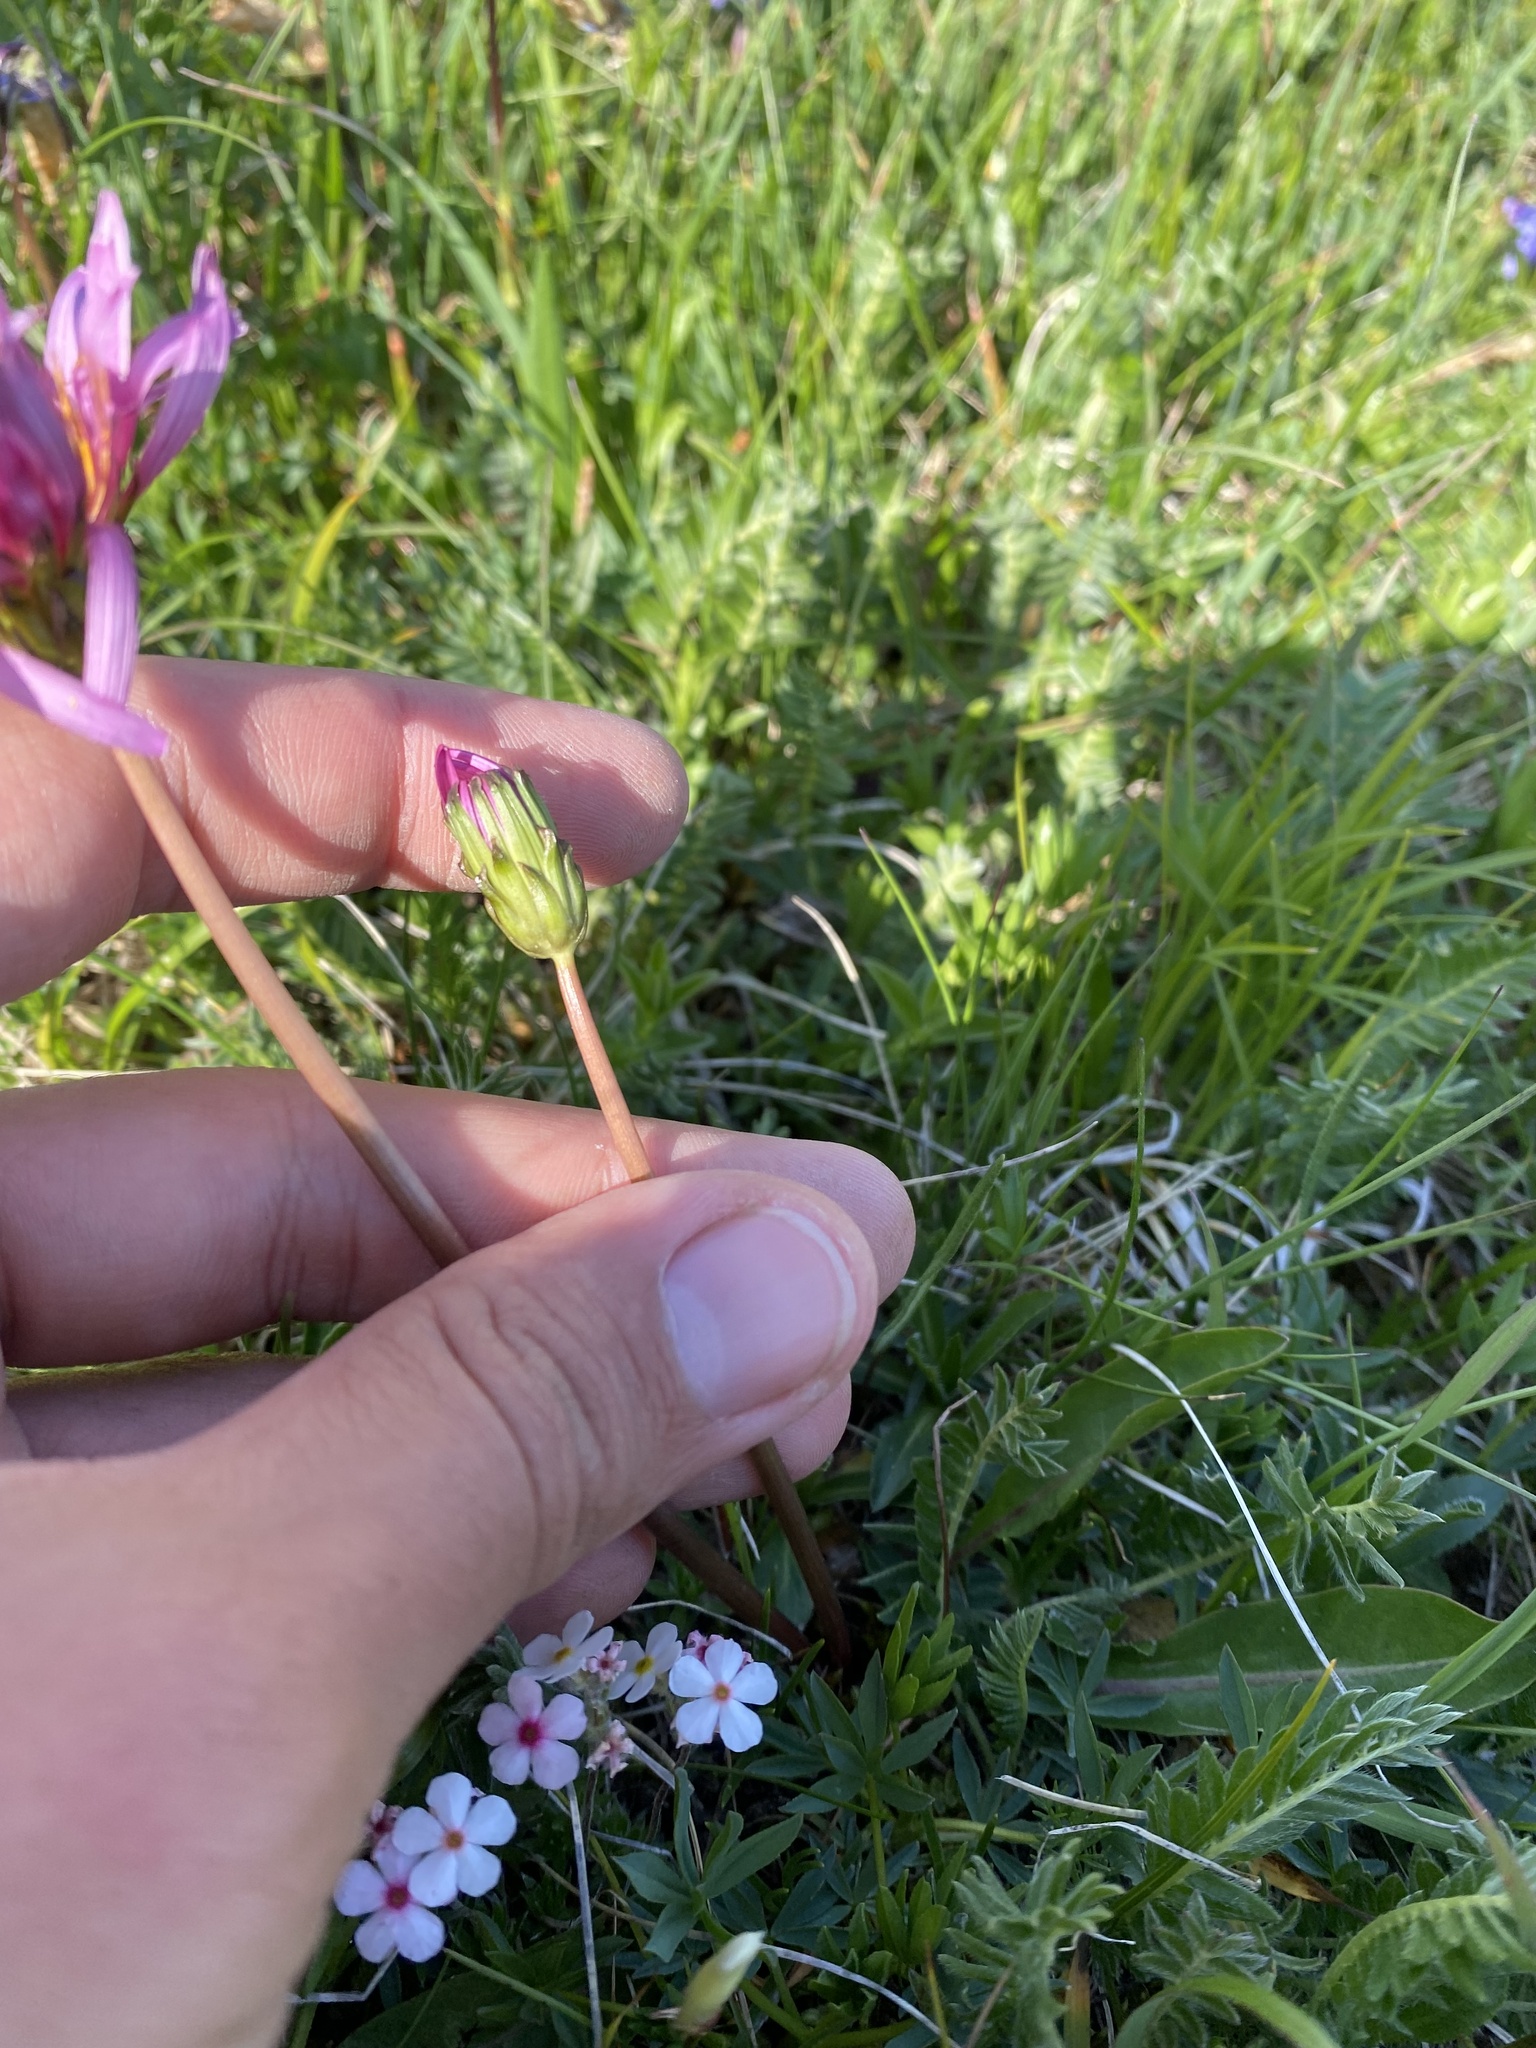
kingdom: Plantae
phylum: Tracheophyta
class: Magnoliopsida
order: Asterales
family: Asteraceae
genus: Taraxacum
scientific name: Taraxacum porphyranthum
